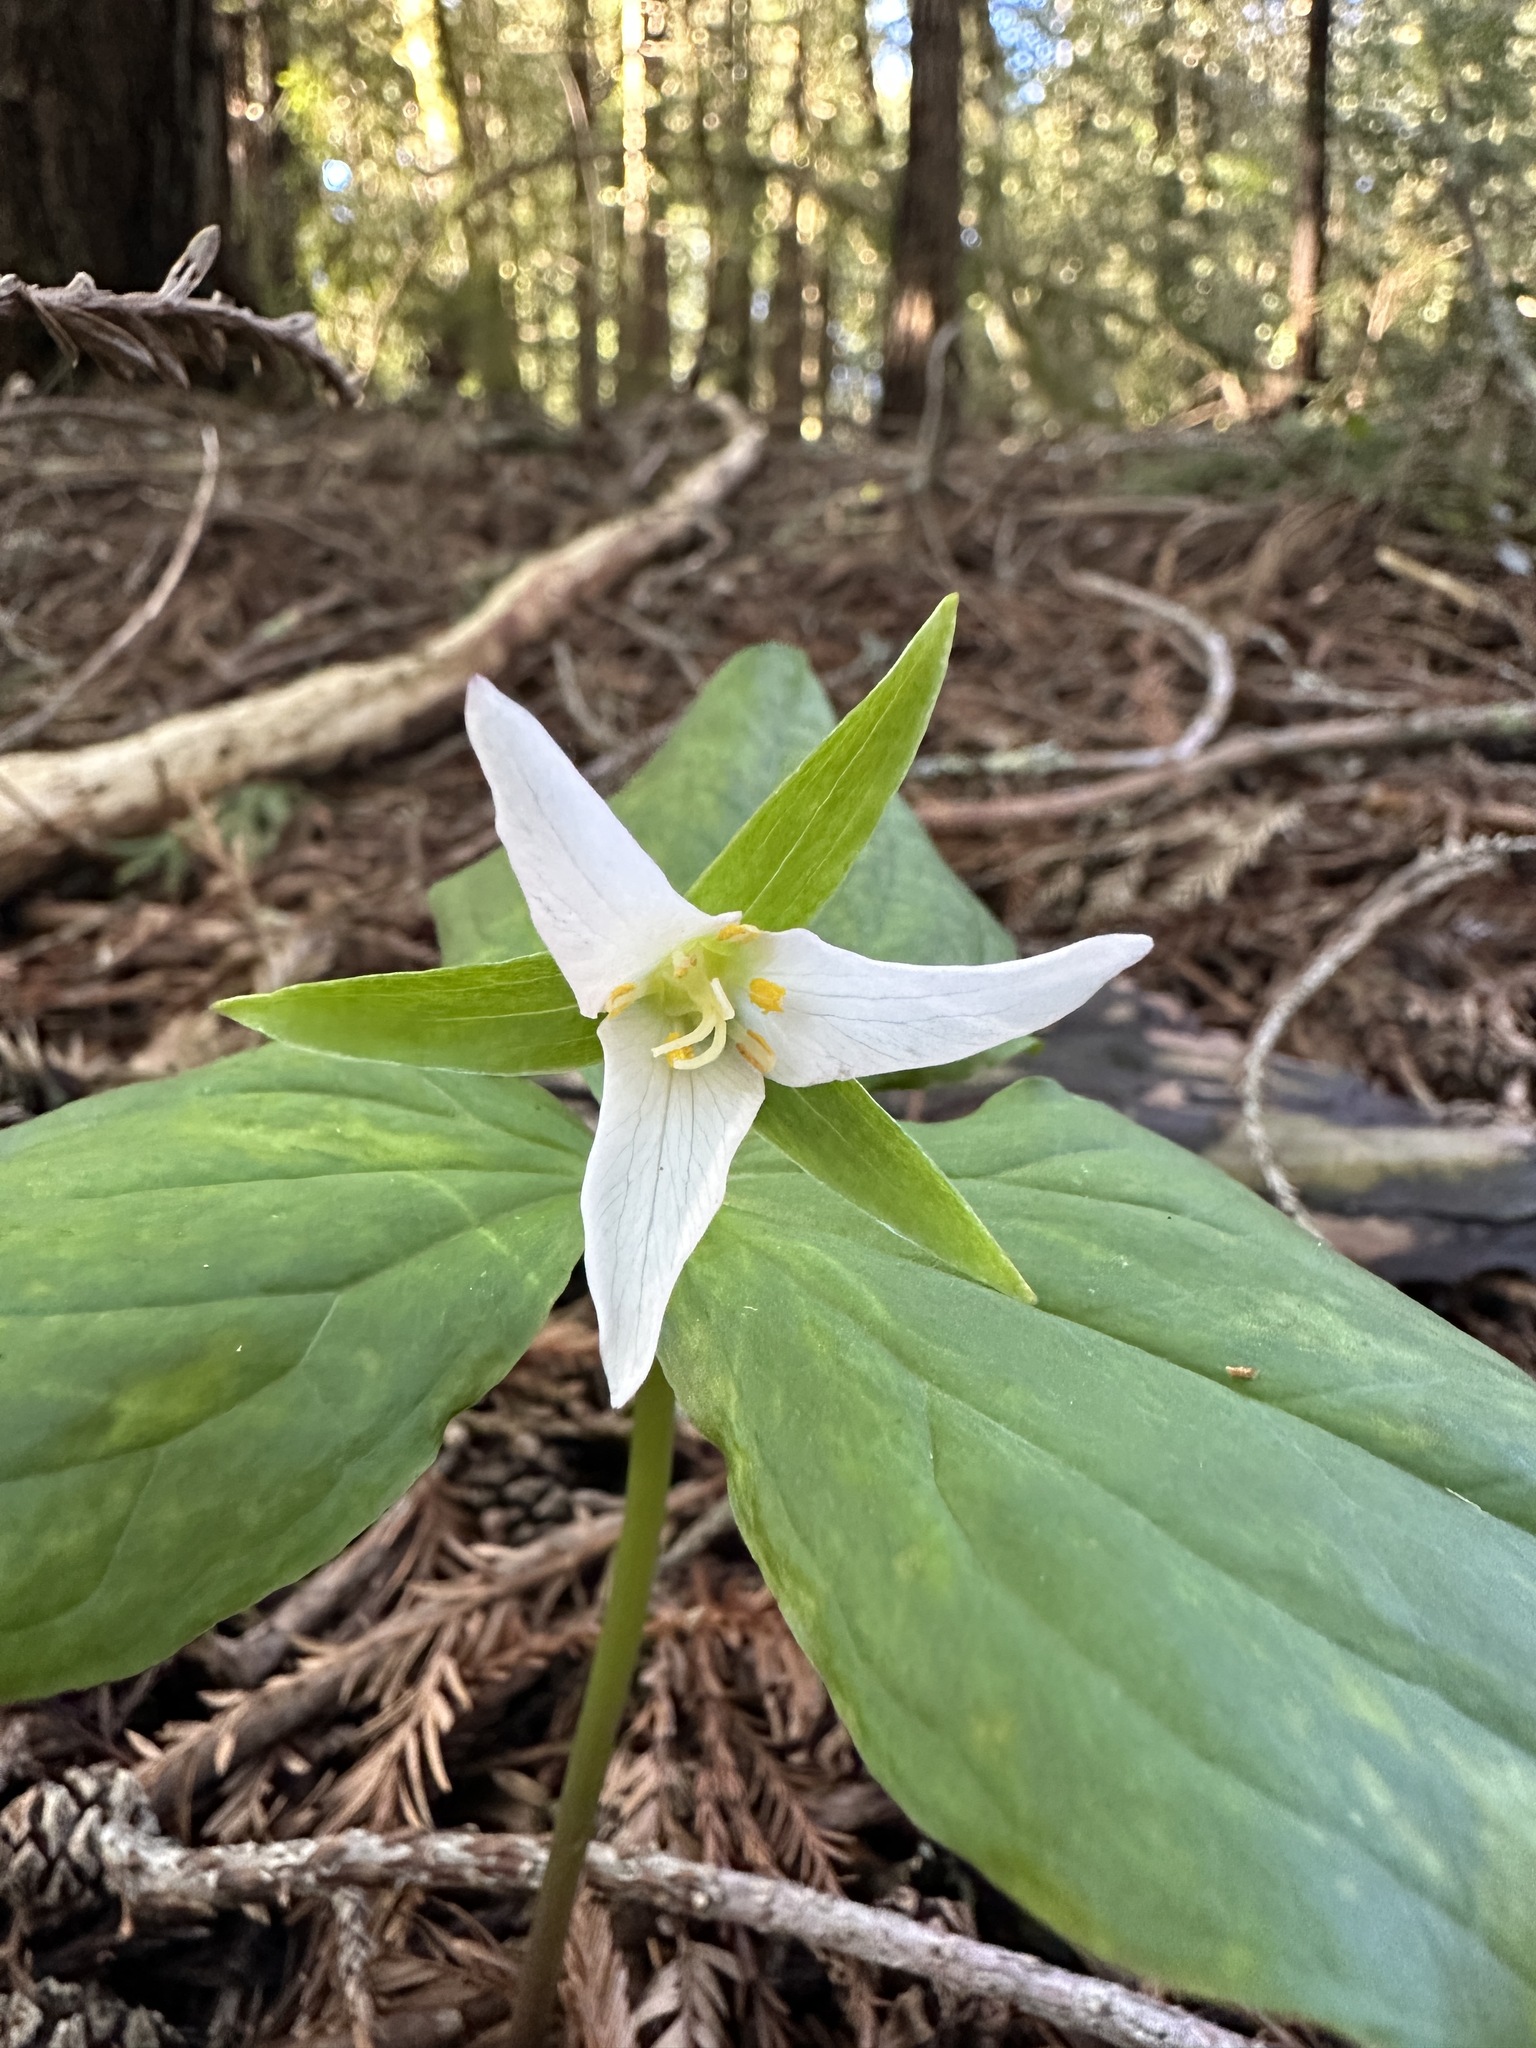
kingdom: Plantae
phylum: Tracheophyta
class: Liliopsida
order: Liliales
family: Melanthiaceae
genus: Trillium
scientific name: Trillium ovatum
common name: Pacific trillium
